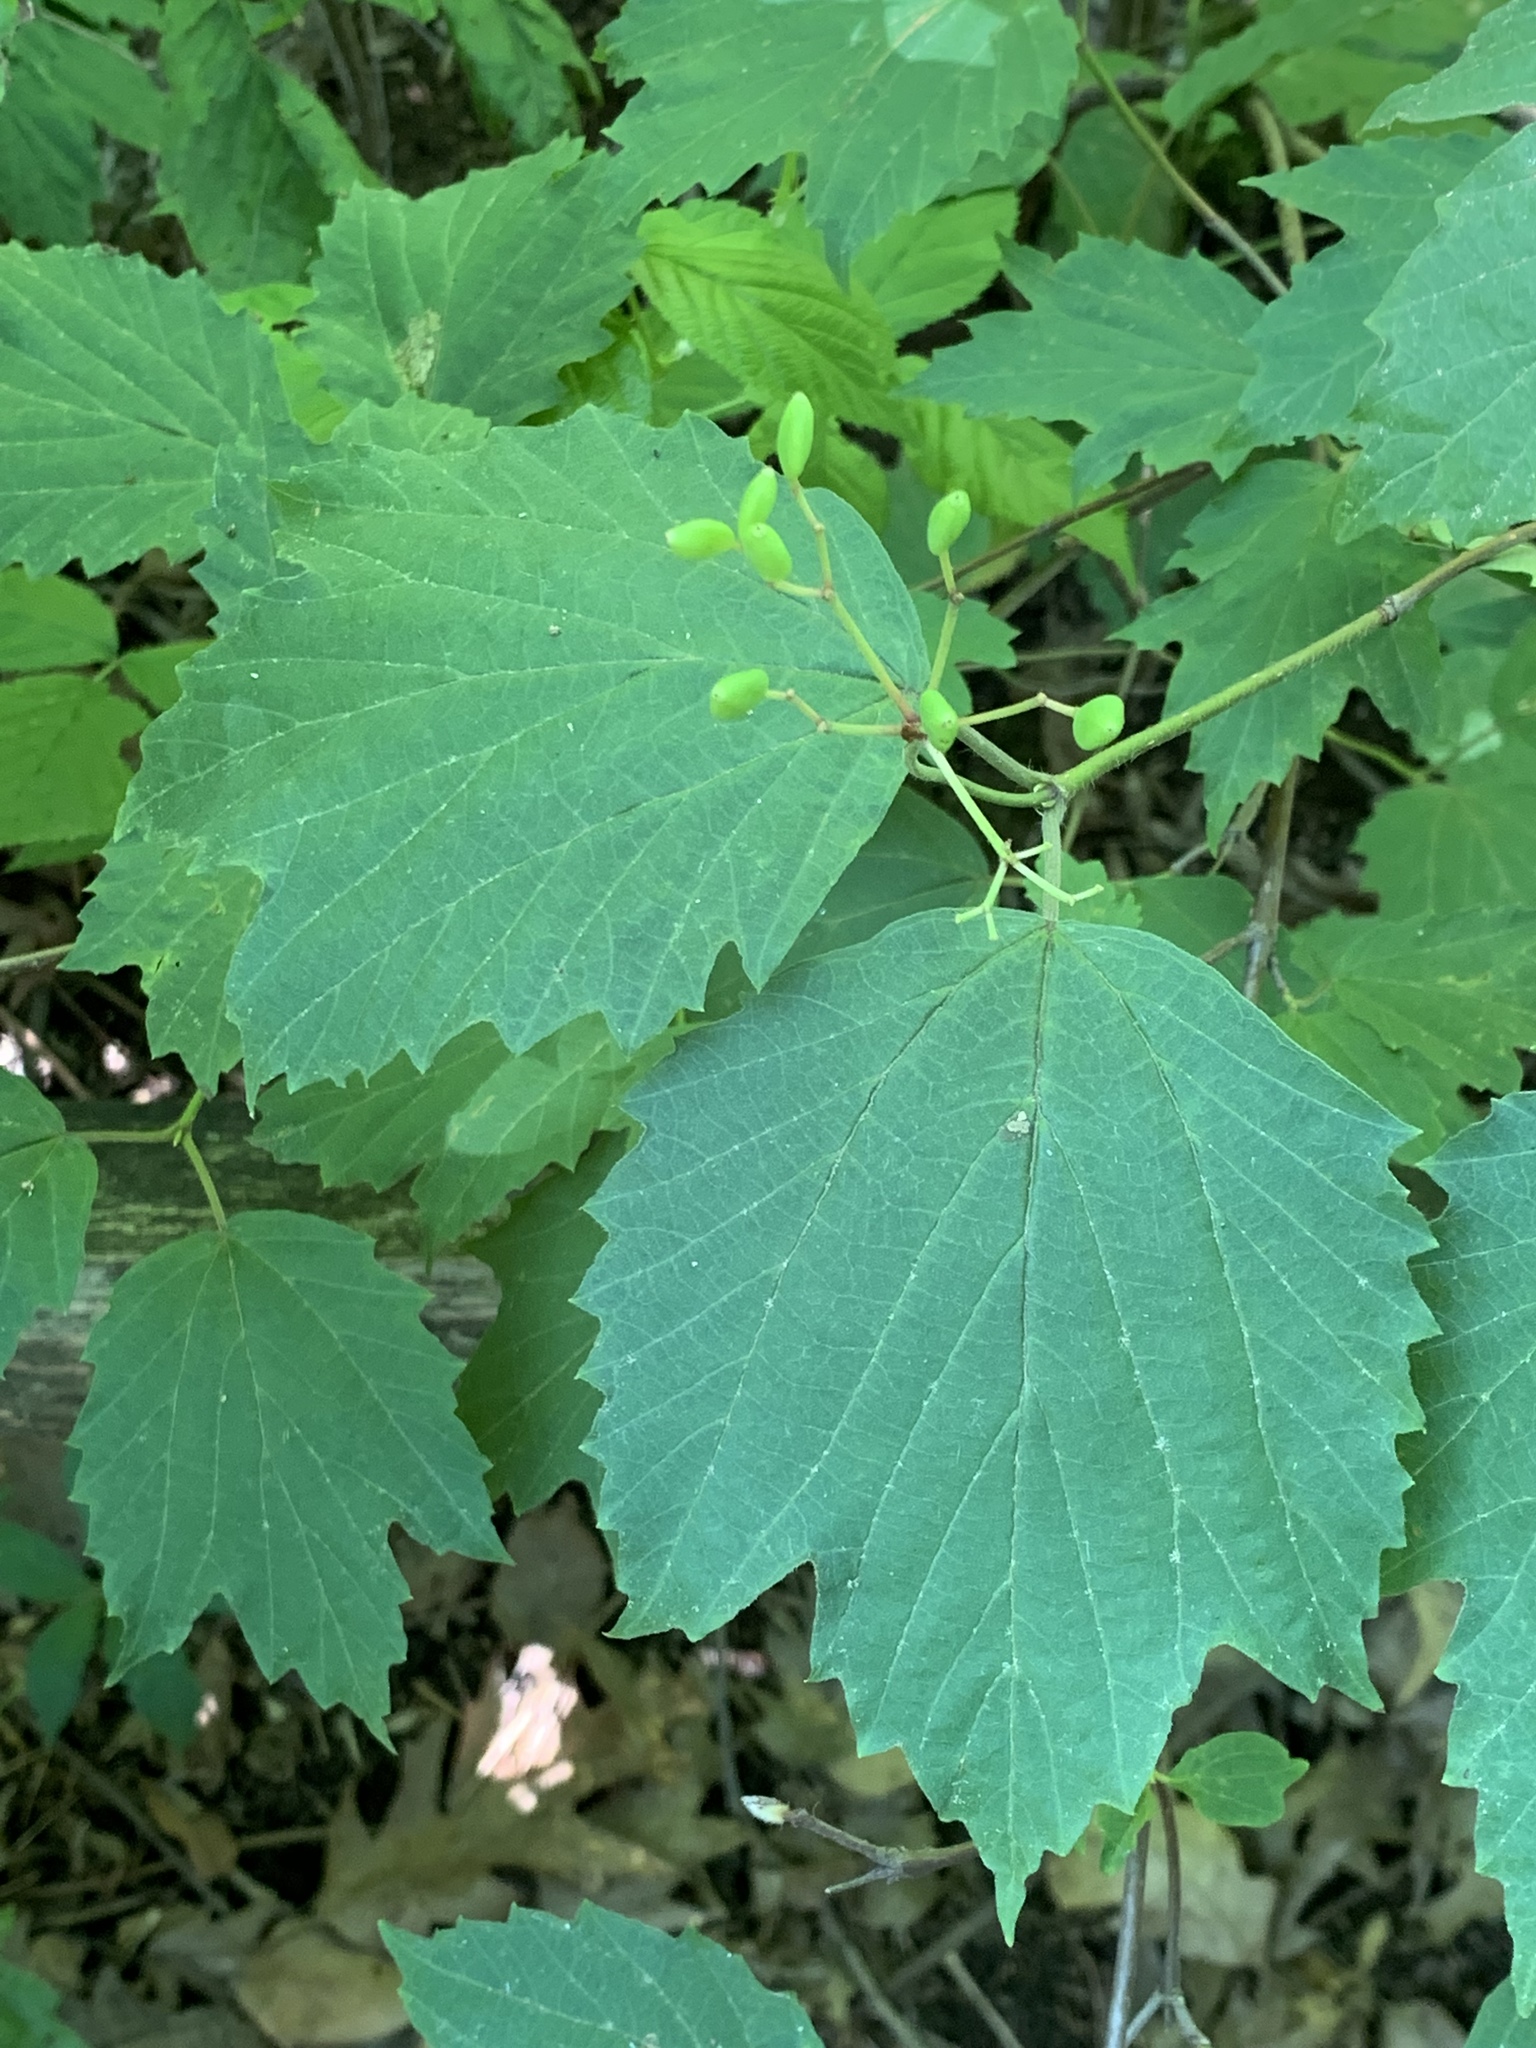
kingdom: Plantae
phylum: Tracheophyta
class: Magnoliopsida
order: Dipsacales
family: Viburnaceae
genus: Viburnum
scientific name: Viburnum acerifolium
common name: Dockmackie
